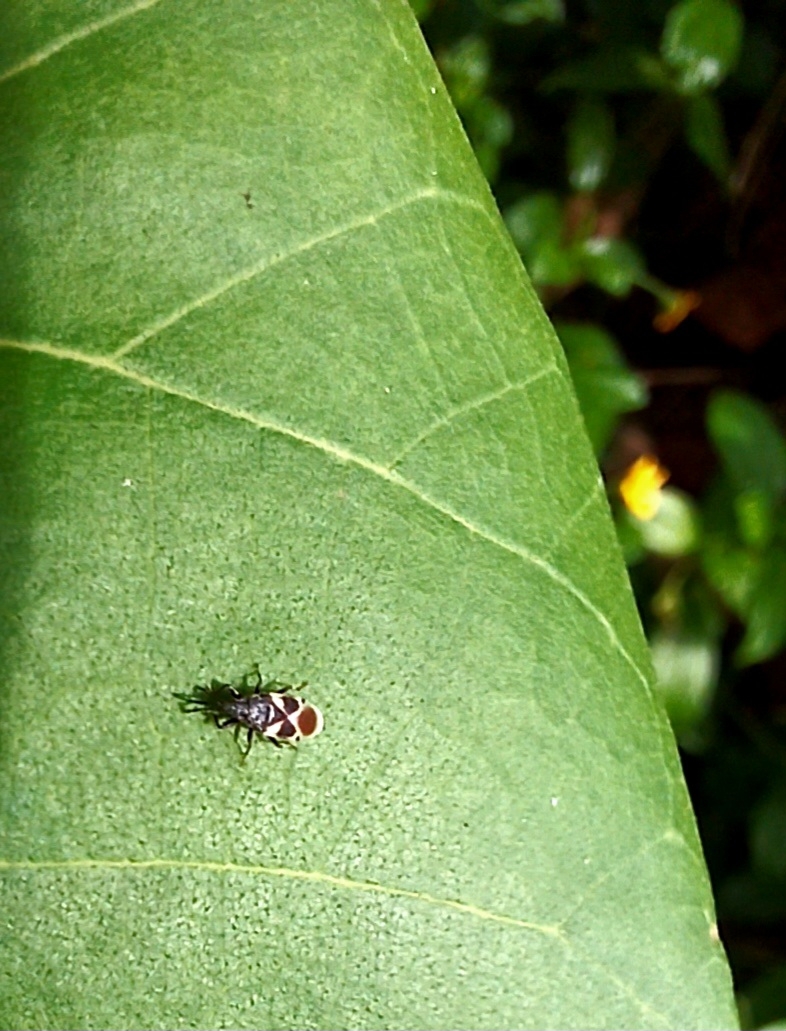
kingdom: Animalia
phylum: Arthropoda
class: Insecta
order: Hemiptera
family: Oxycarenidae
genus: Oxycarenus
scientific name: Oxycarenus luctuosus
